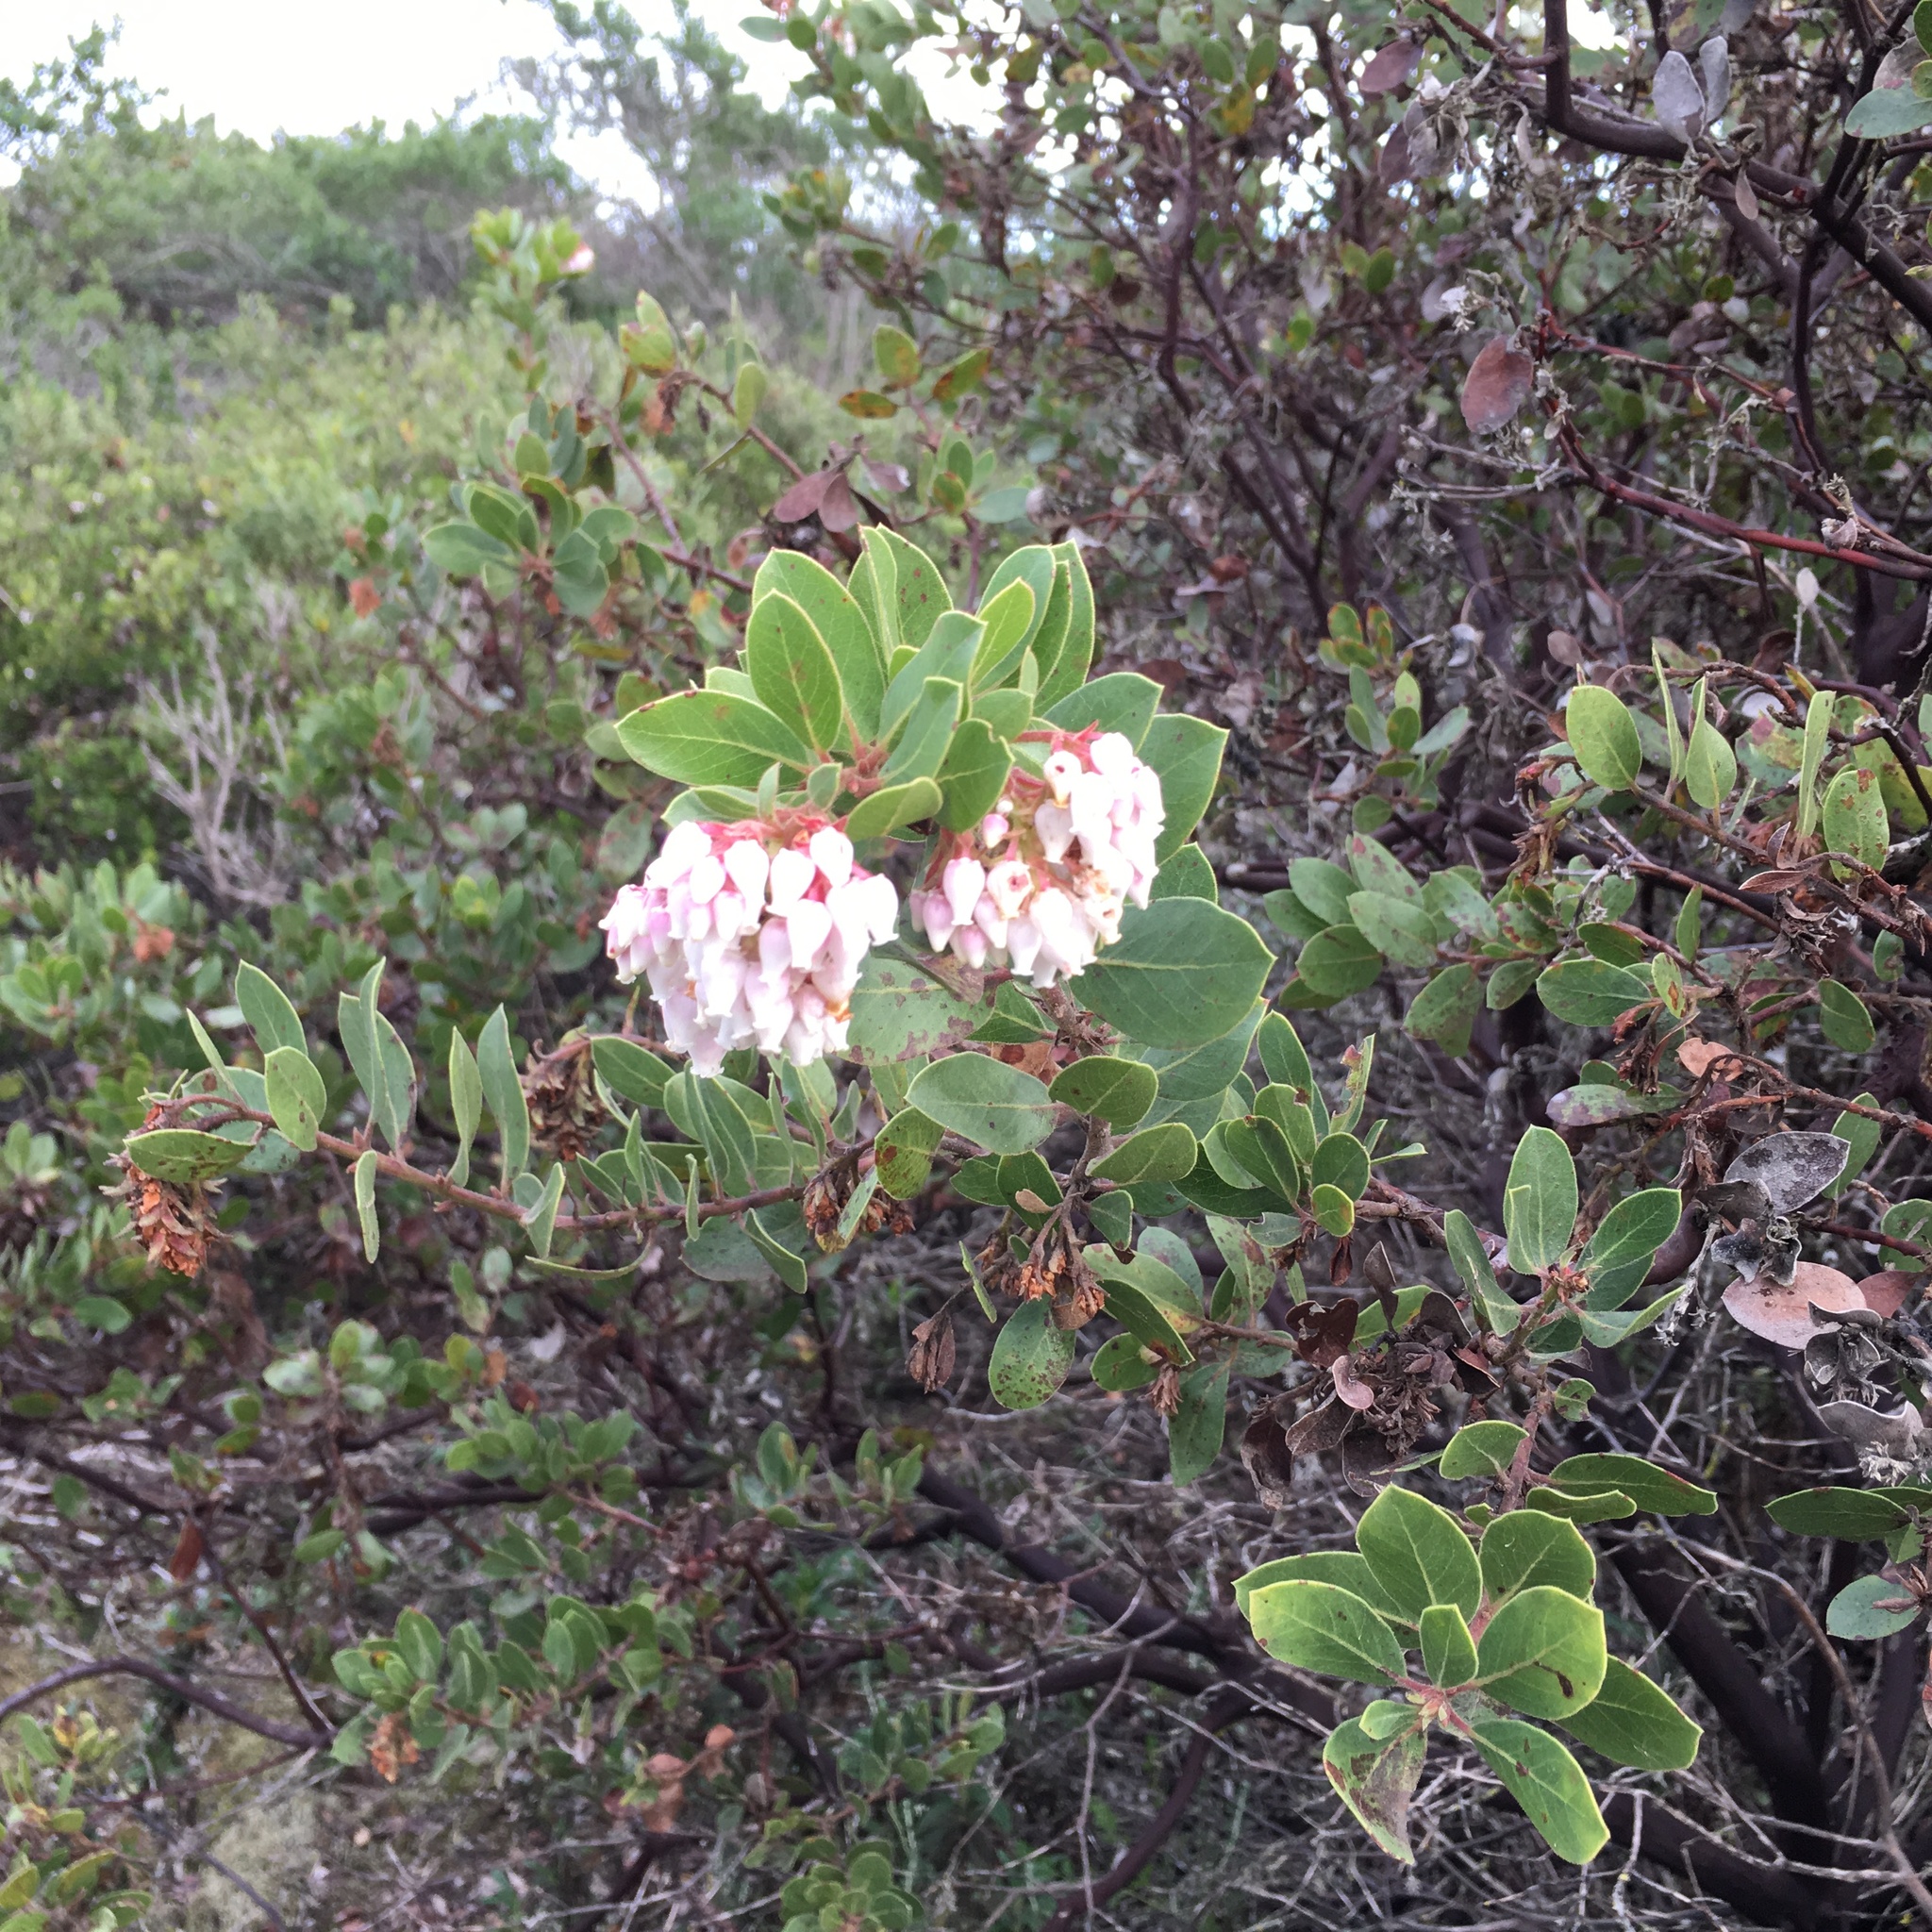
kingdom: Plantae
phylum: Tracheophyta
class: Magnoliopsida
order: Ericales
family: Ericaceae
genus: Arctostaphylos
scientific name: Arctostaphylos montereyensis
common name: Monterey manzanita
